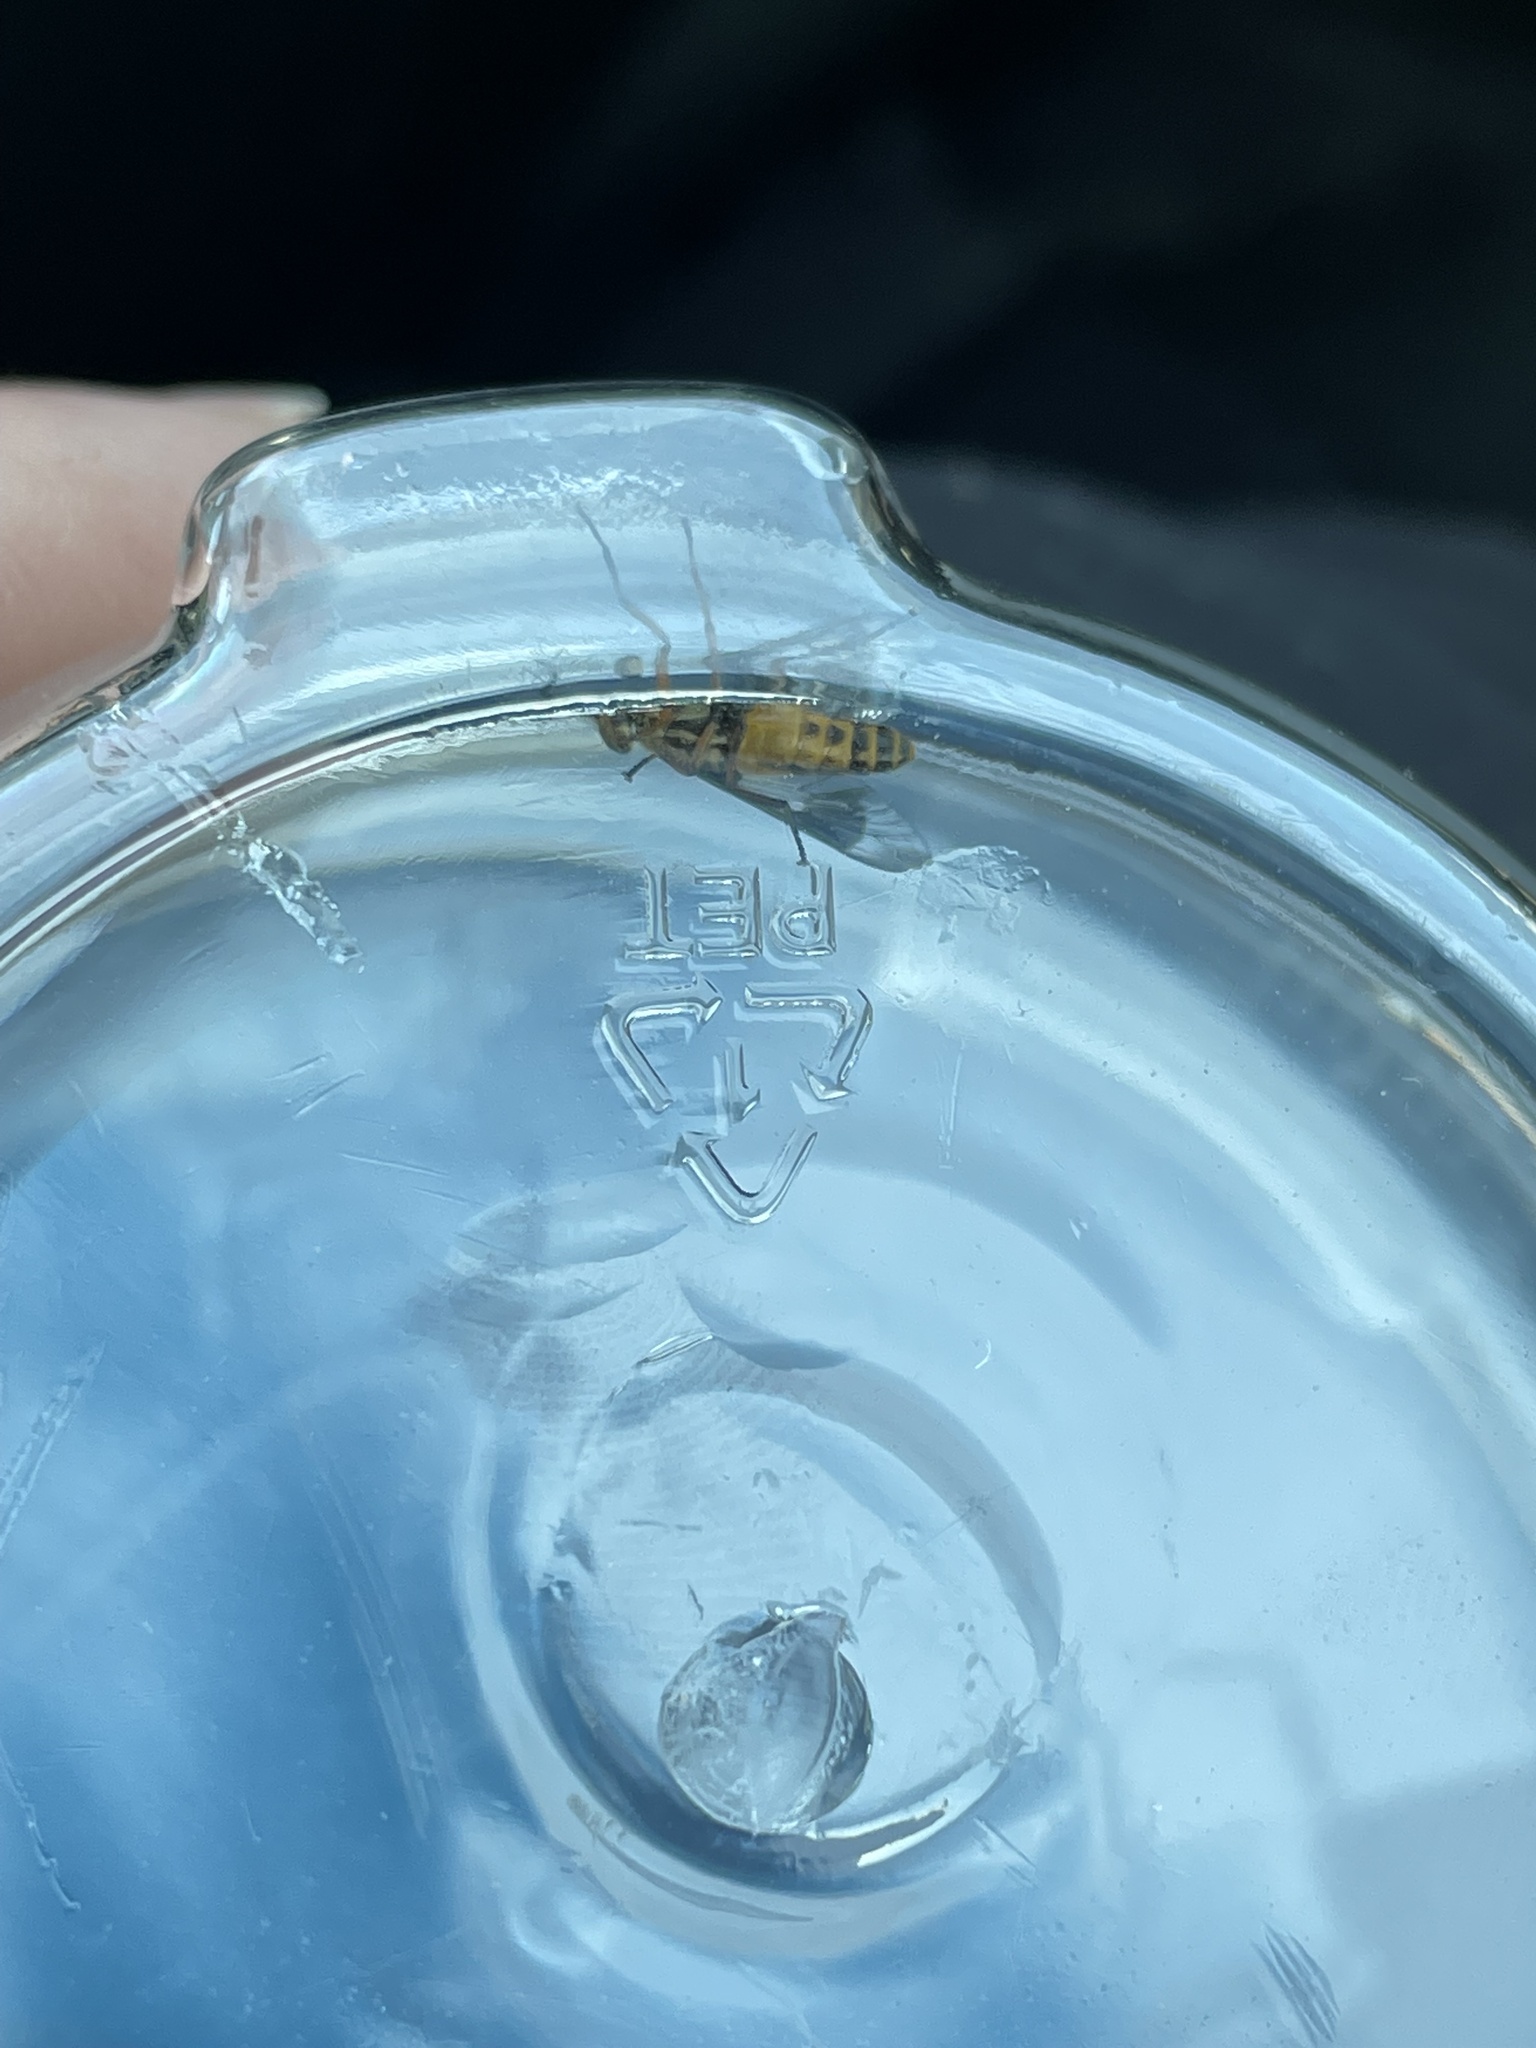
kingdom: Animalia
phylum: Arthropoda
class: Insecta
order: Diptera
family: Tabanidae
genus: Chrysops
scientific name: Chrysops lateralis
